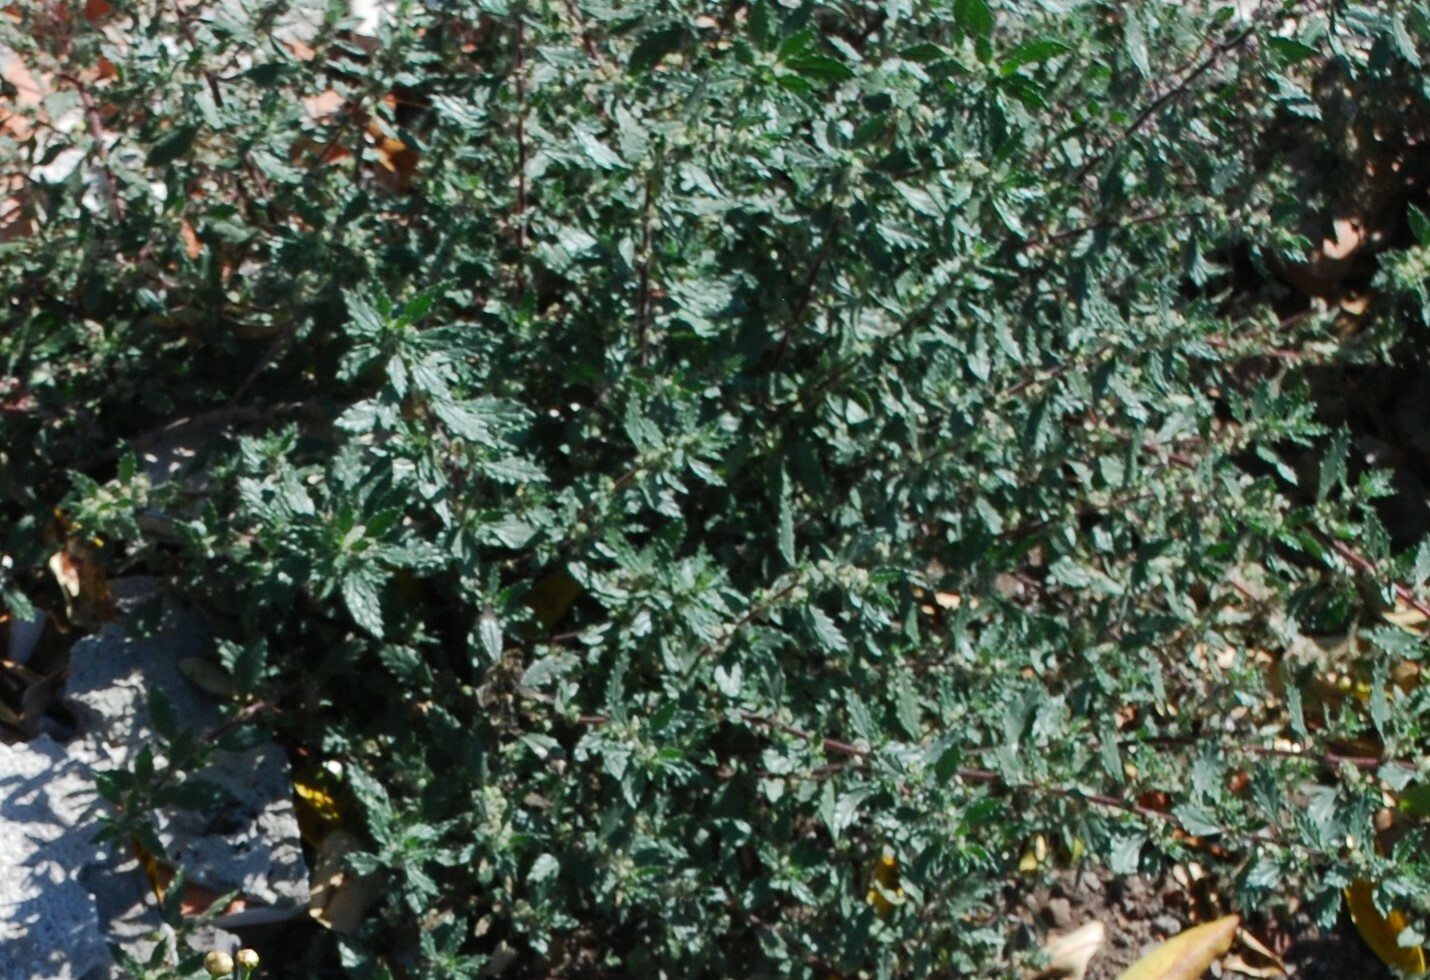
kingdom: Plantae
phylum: Tracheophyta
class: Magnoliopsida
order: Rosales
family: Urticaceae
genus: Forsskaolea
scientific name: Forsskaolea angustifolia
